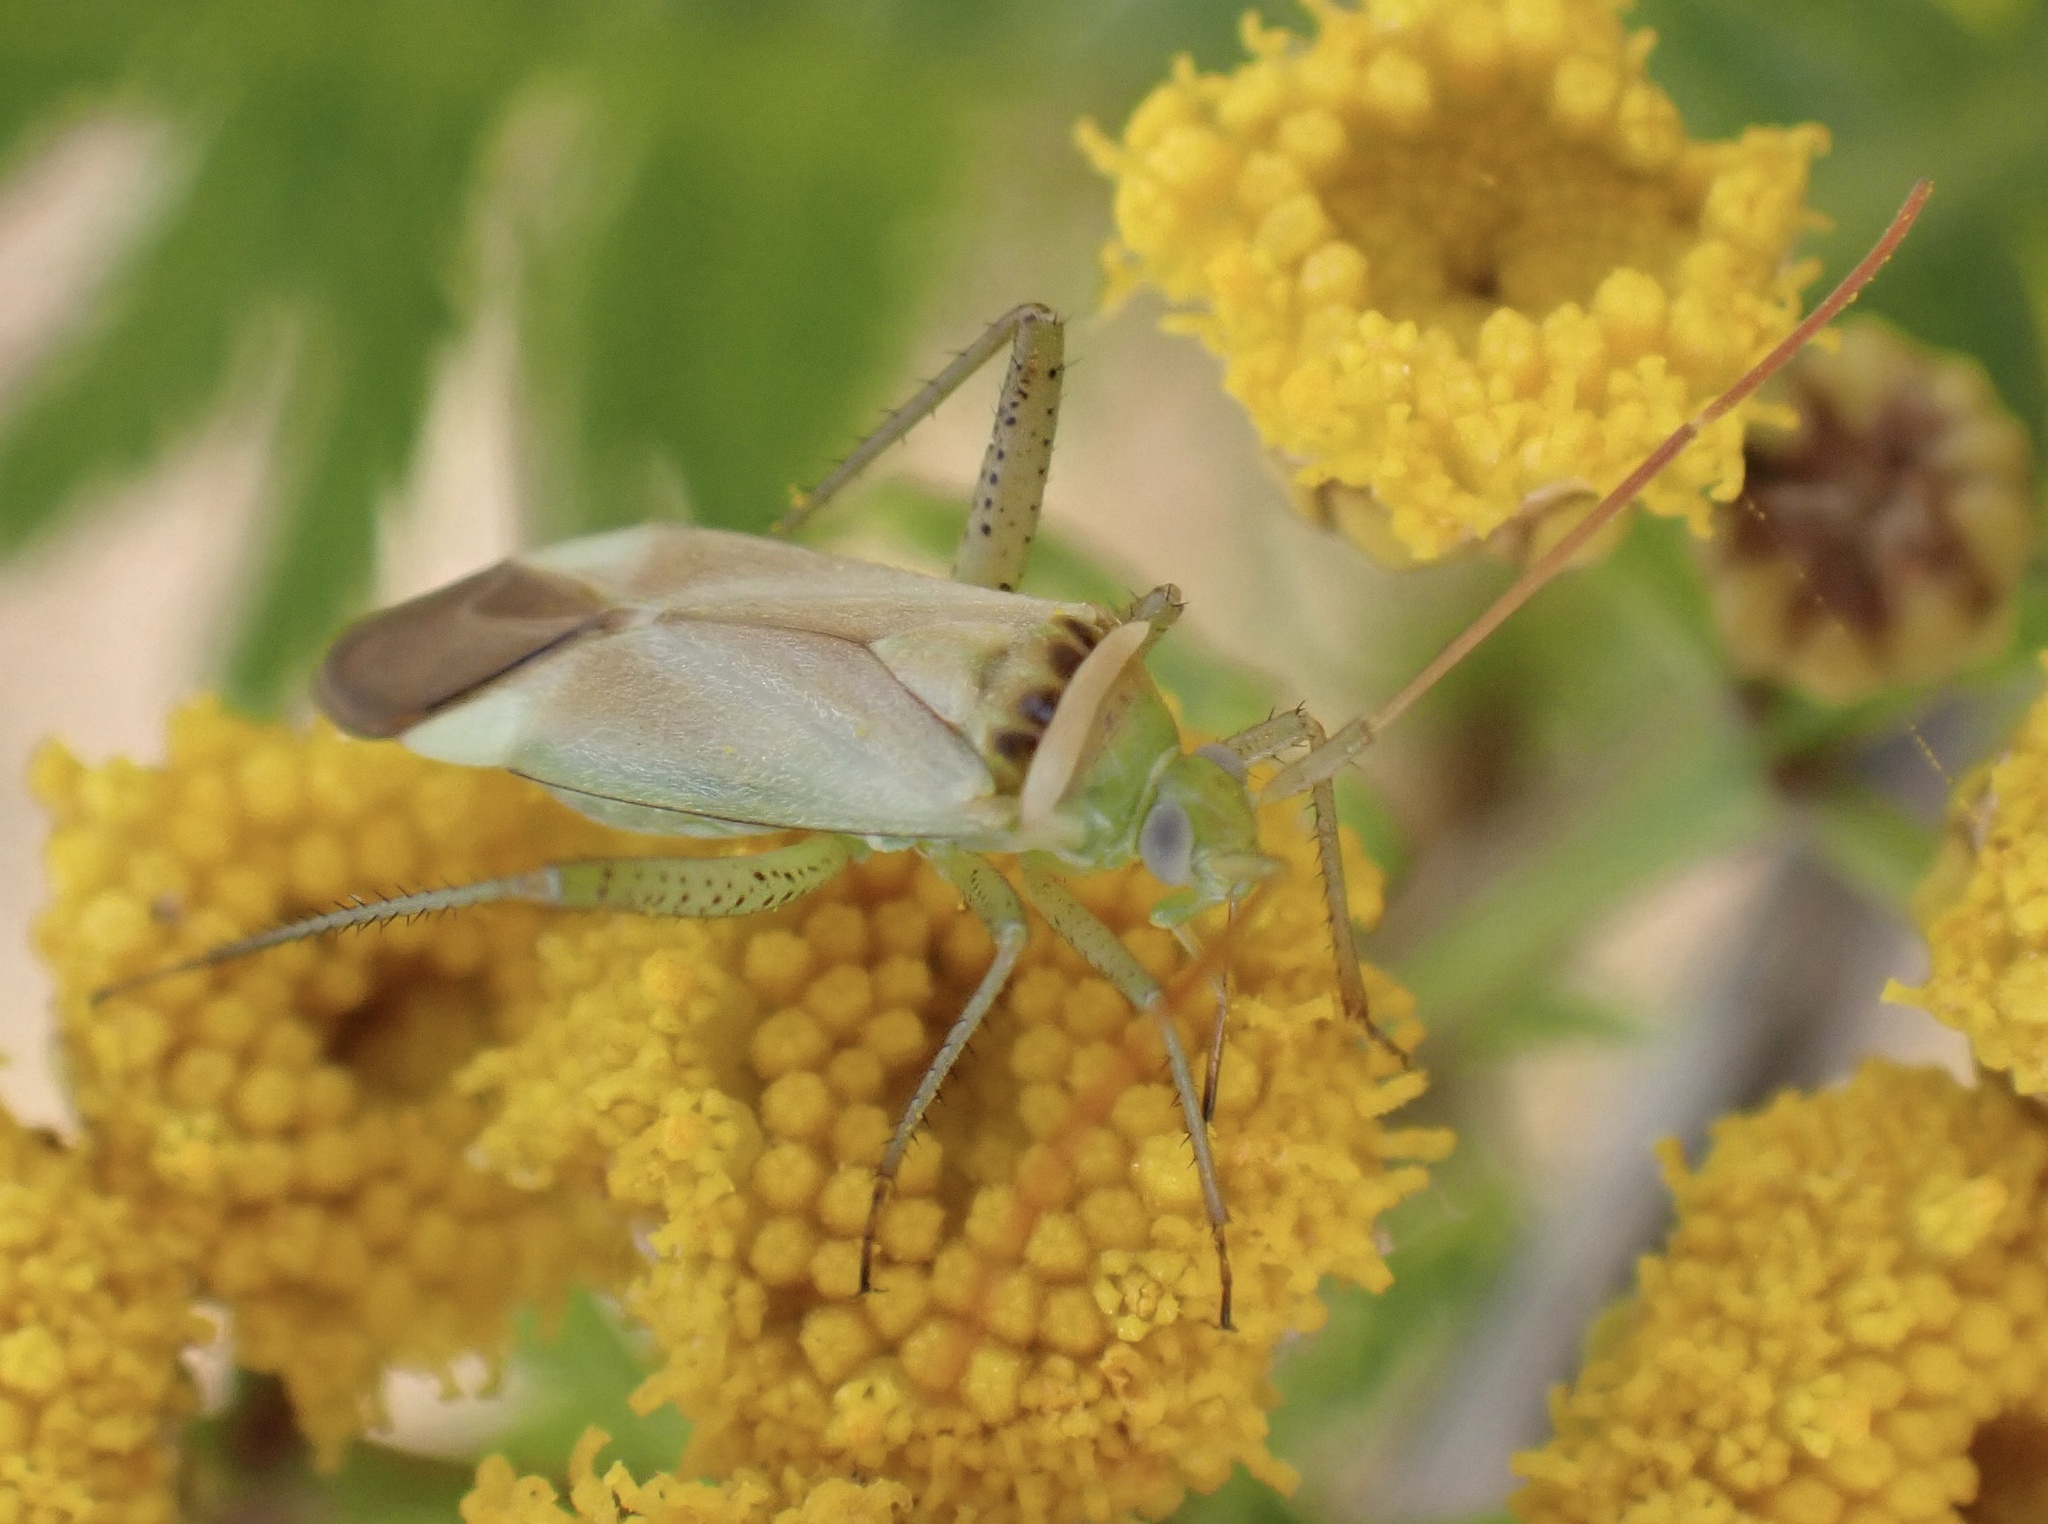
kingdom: Animalia
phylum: Arthropoda
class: Insecta
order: Hemiptera
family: Miridae
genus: Adelphocoris
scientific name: Adelphocoris lineolatus
